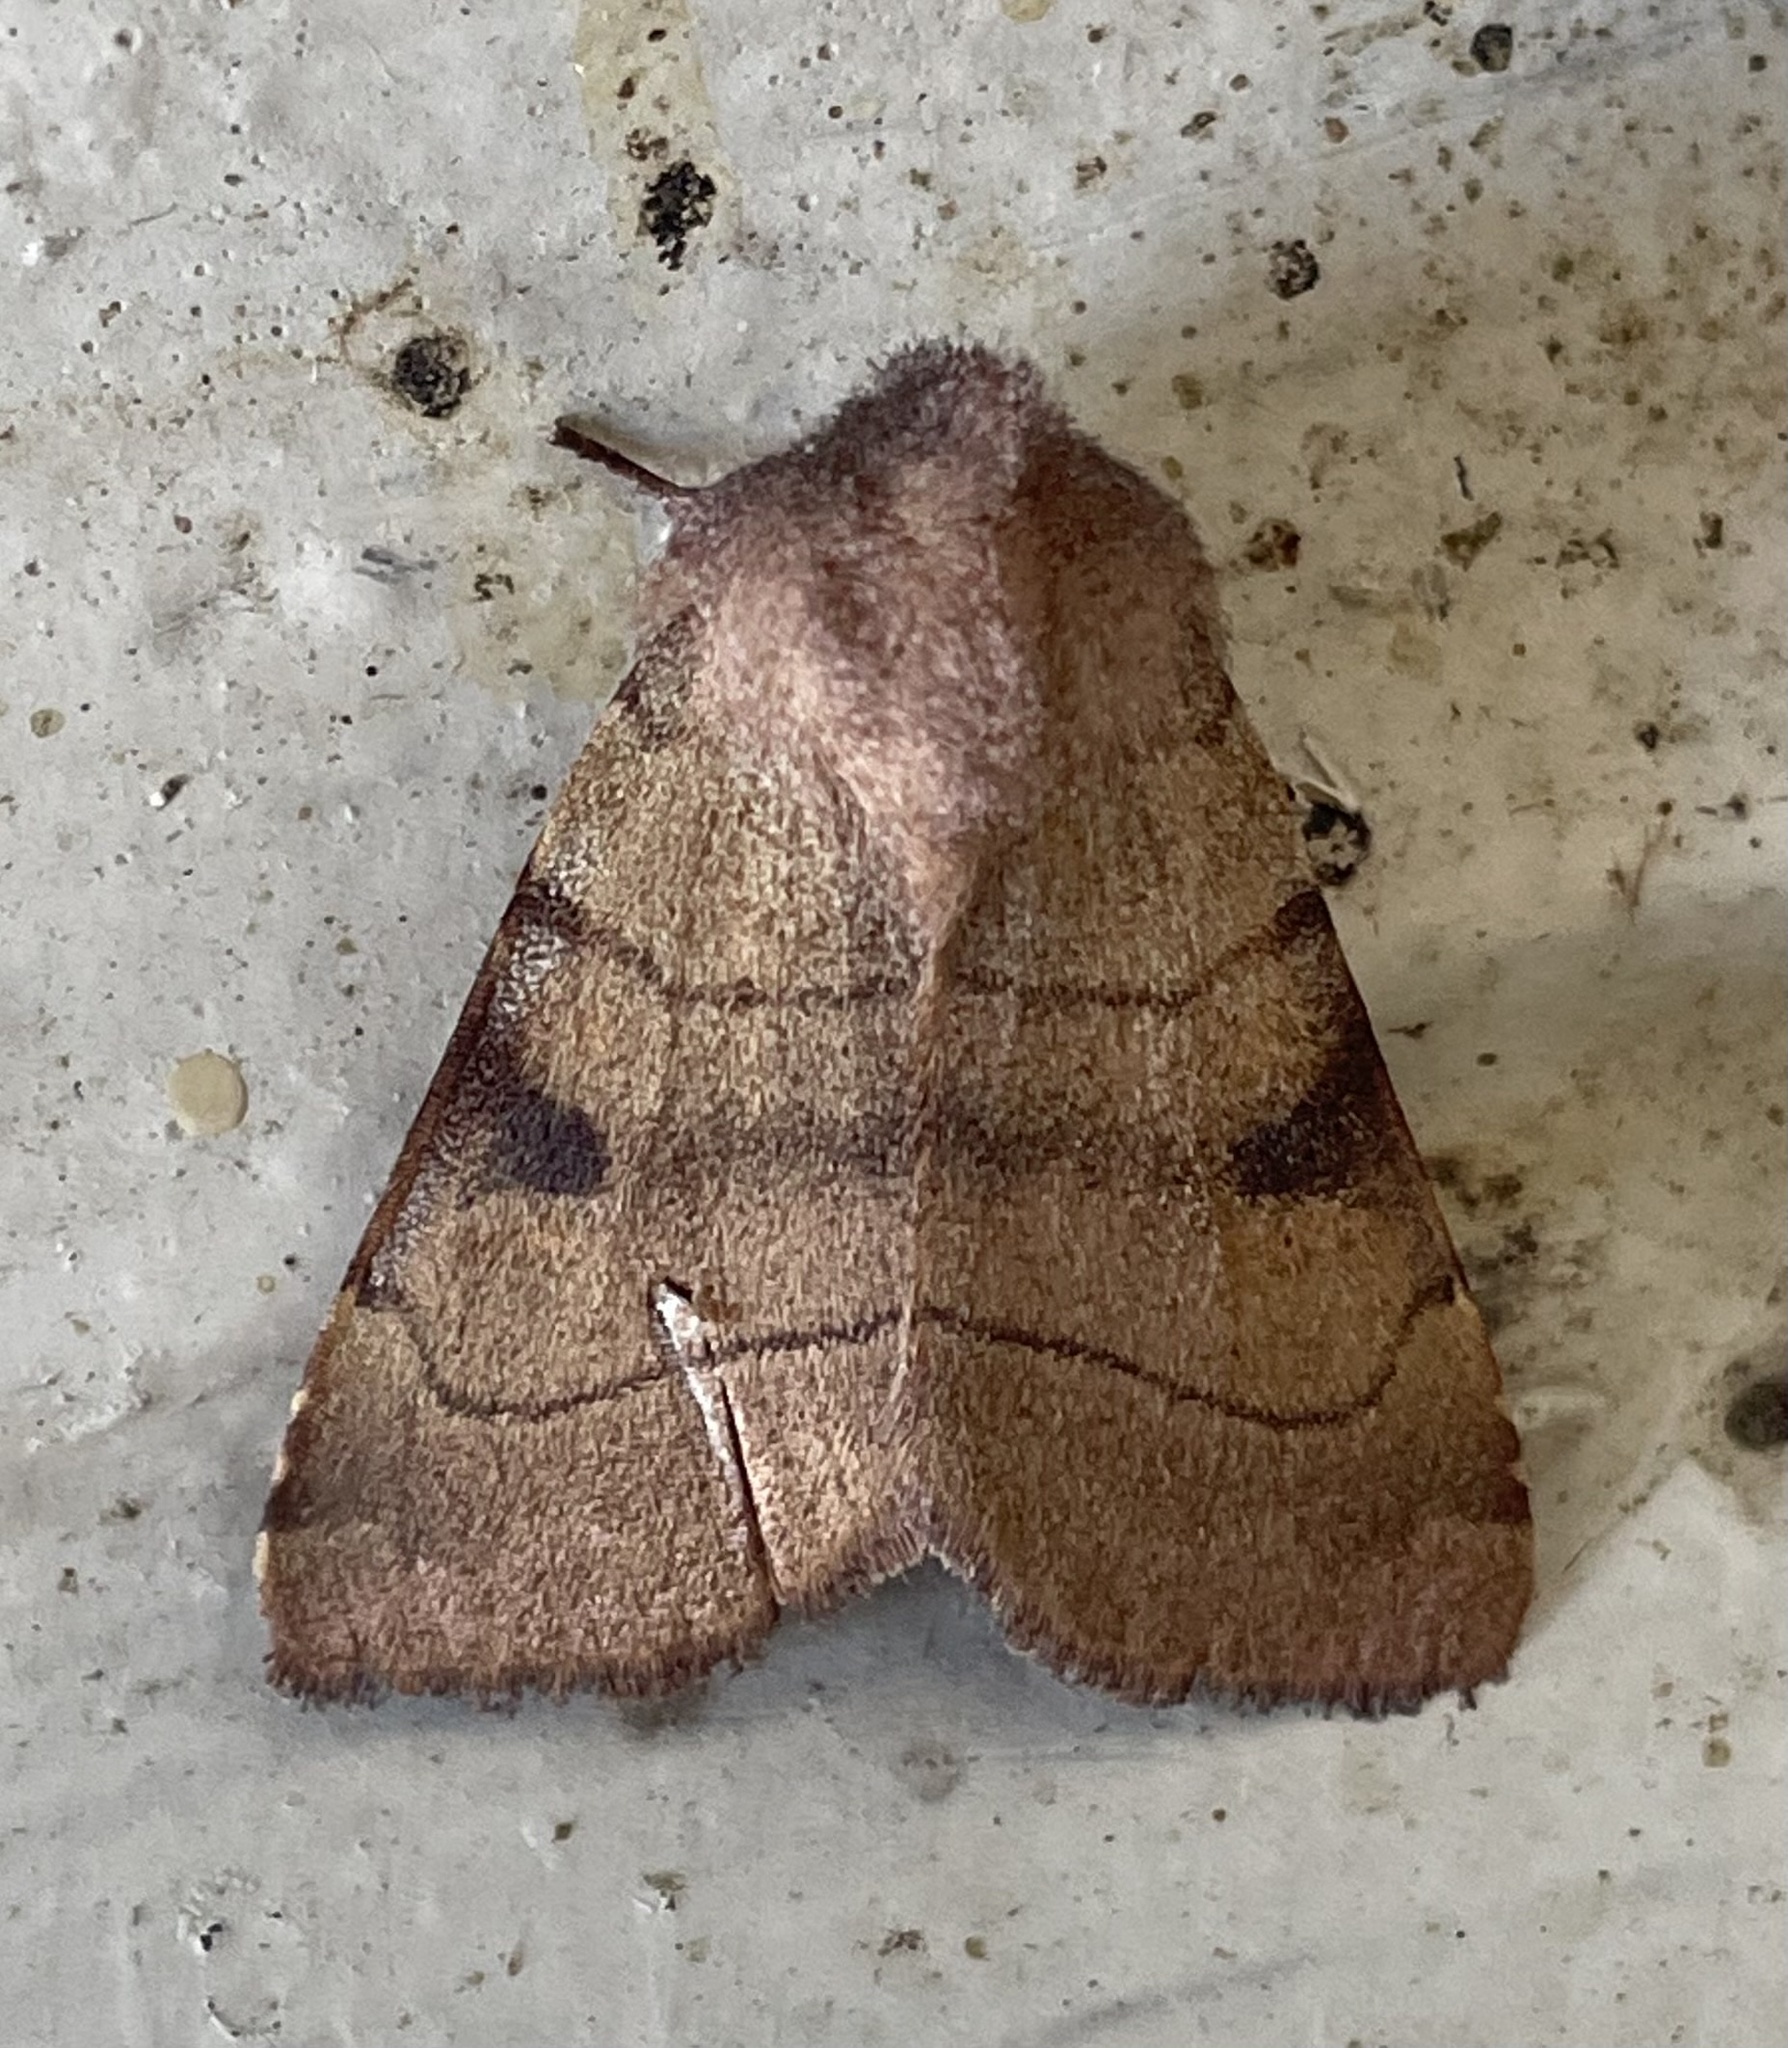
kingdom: Animalia
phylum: Arthropoda
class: Insecta
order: Lepidoptera
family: Noctuidae
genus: Choephora
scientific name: Choephora fungorum
